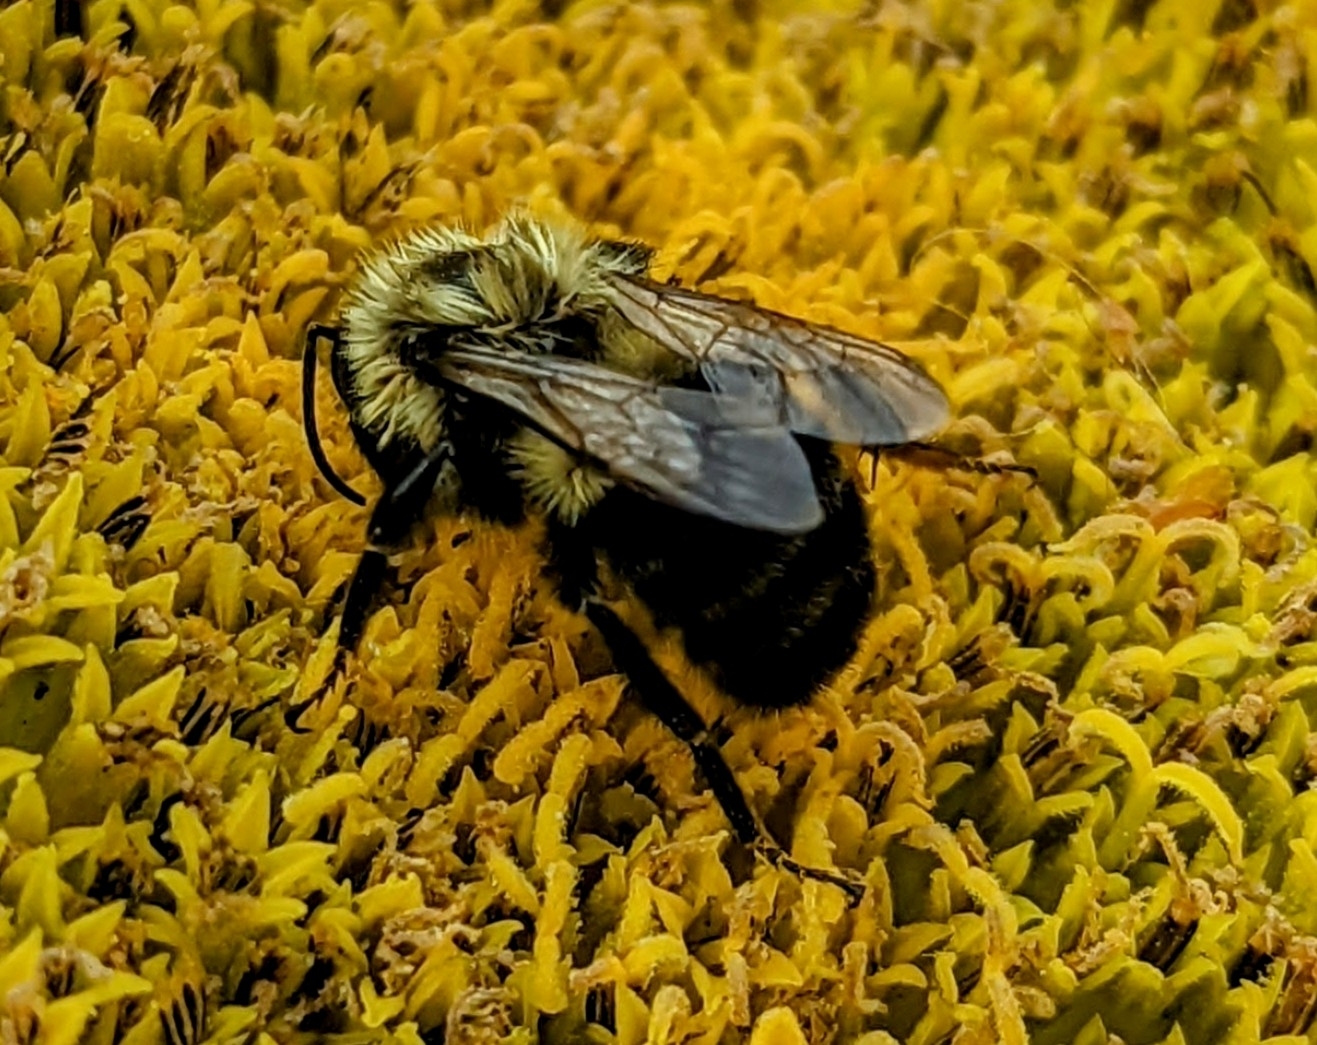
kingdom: Animalia
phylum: Arthropoda
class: Insecta
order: Hymenoptera
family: Apidae
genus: Bombus
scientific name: Bombus impatiens
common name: Common eastern bumble bee
